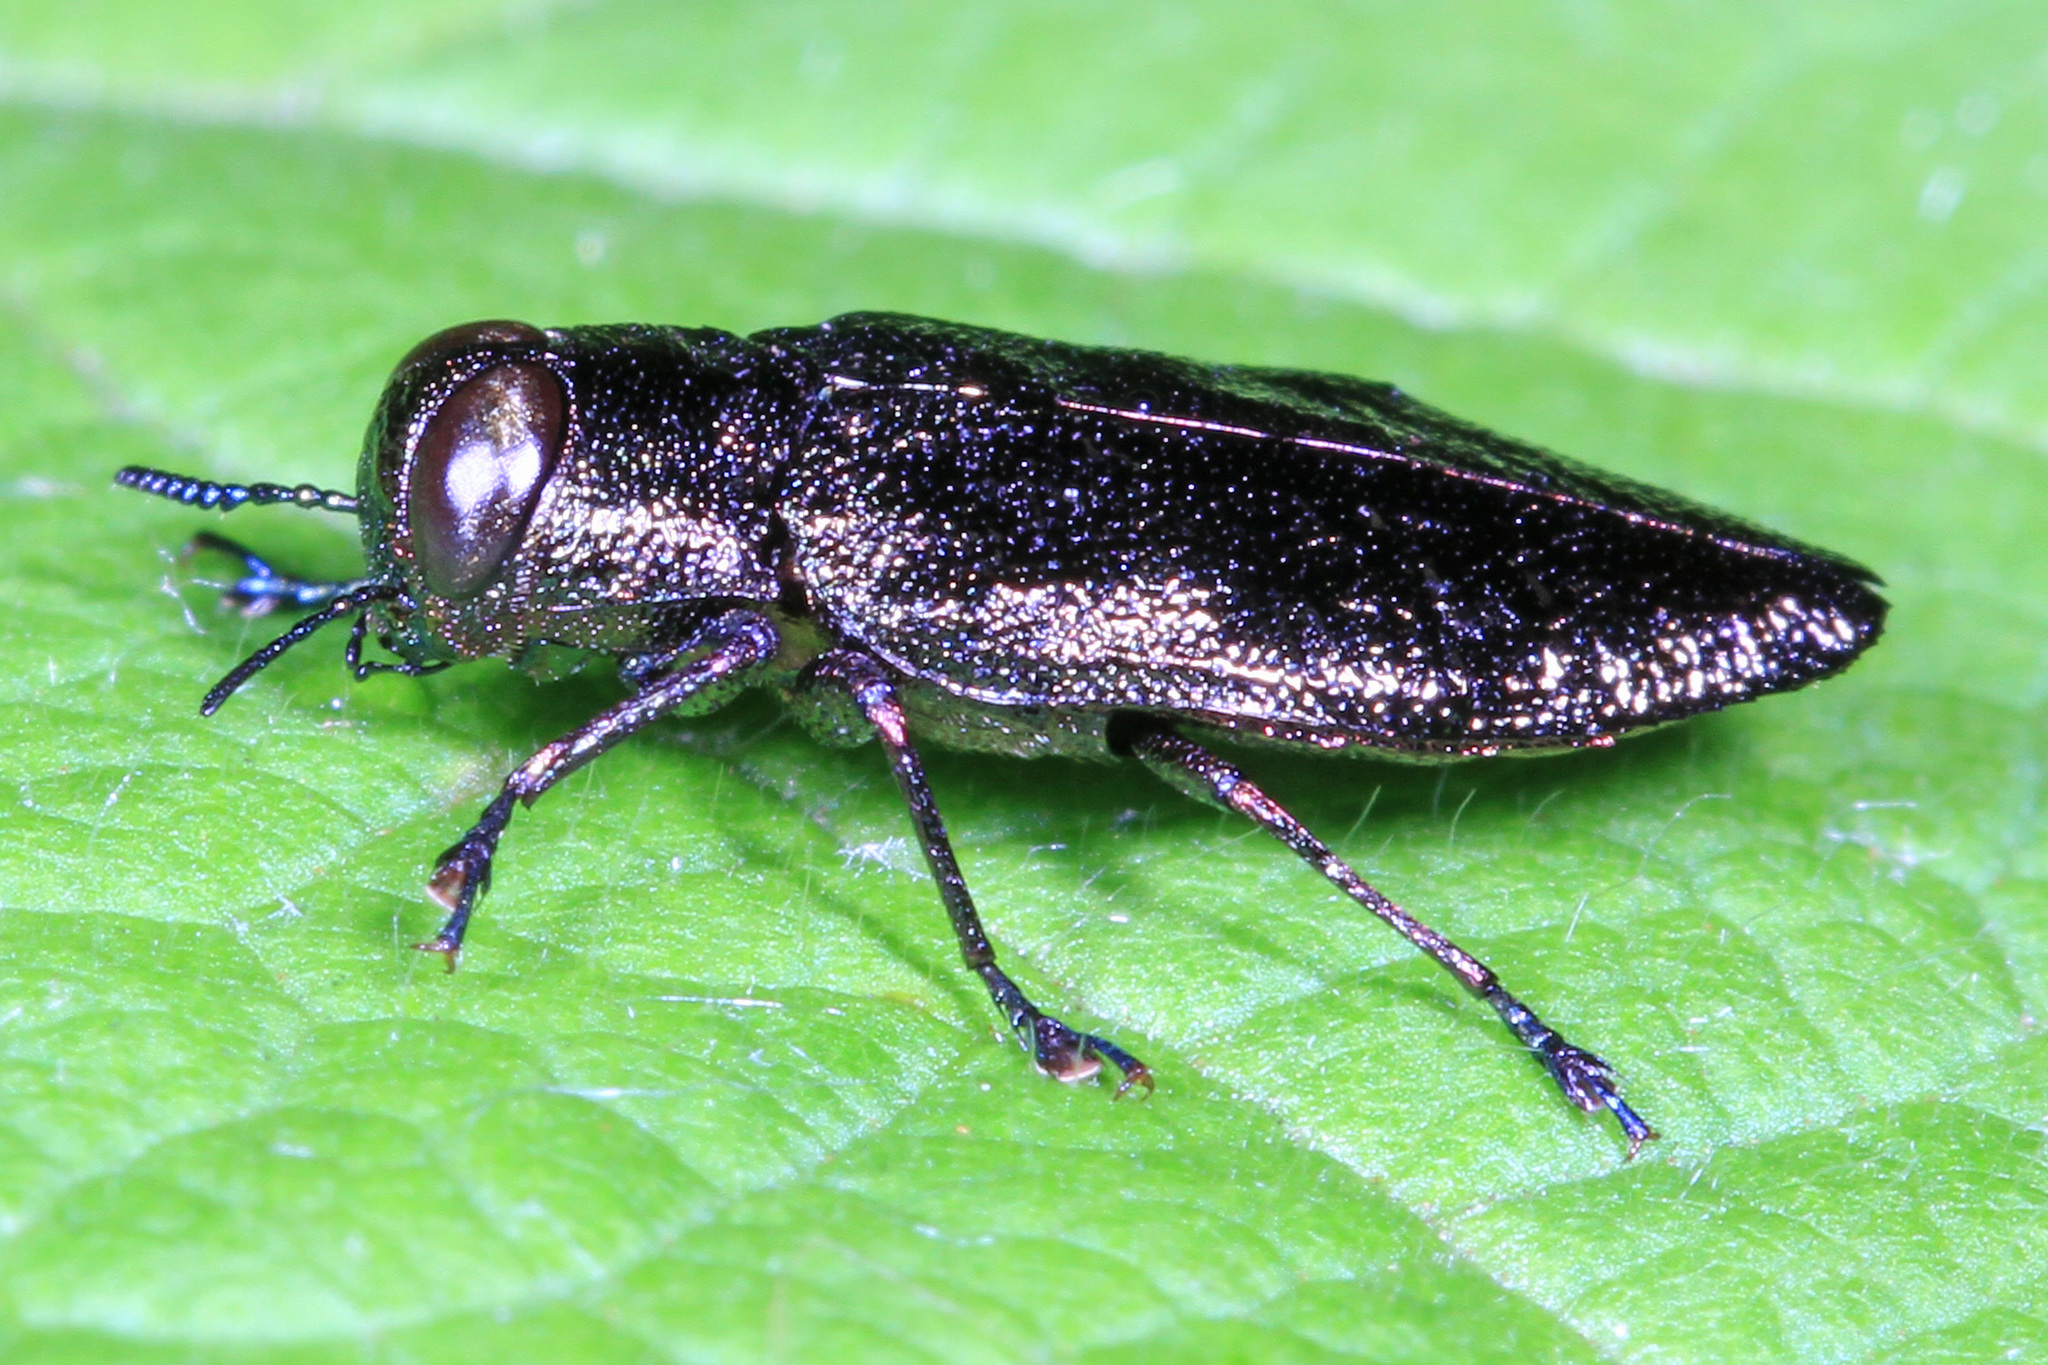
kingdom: Animalia
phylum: Arthropoda
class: Insecta
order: Coleoptera
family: Buprestidae
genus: Actenodes
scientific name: Actenodes acornis
